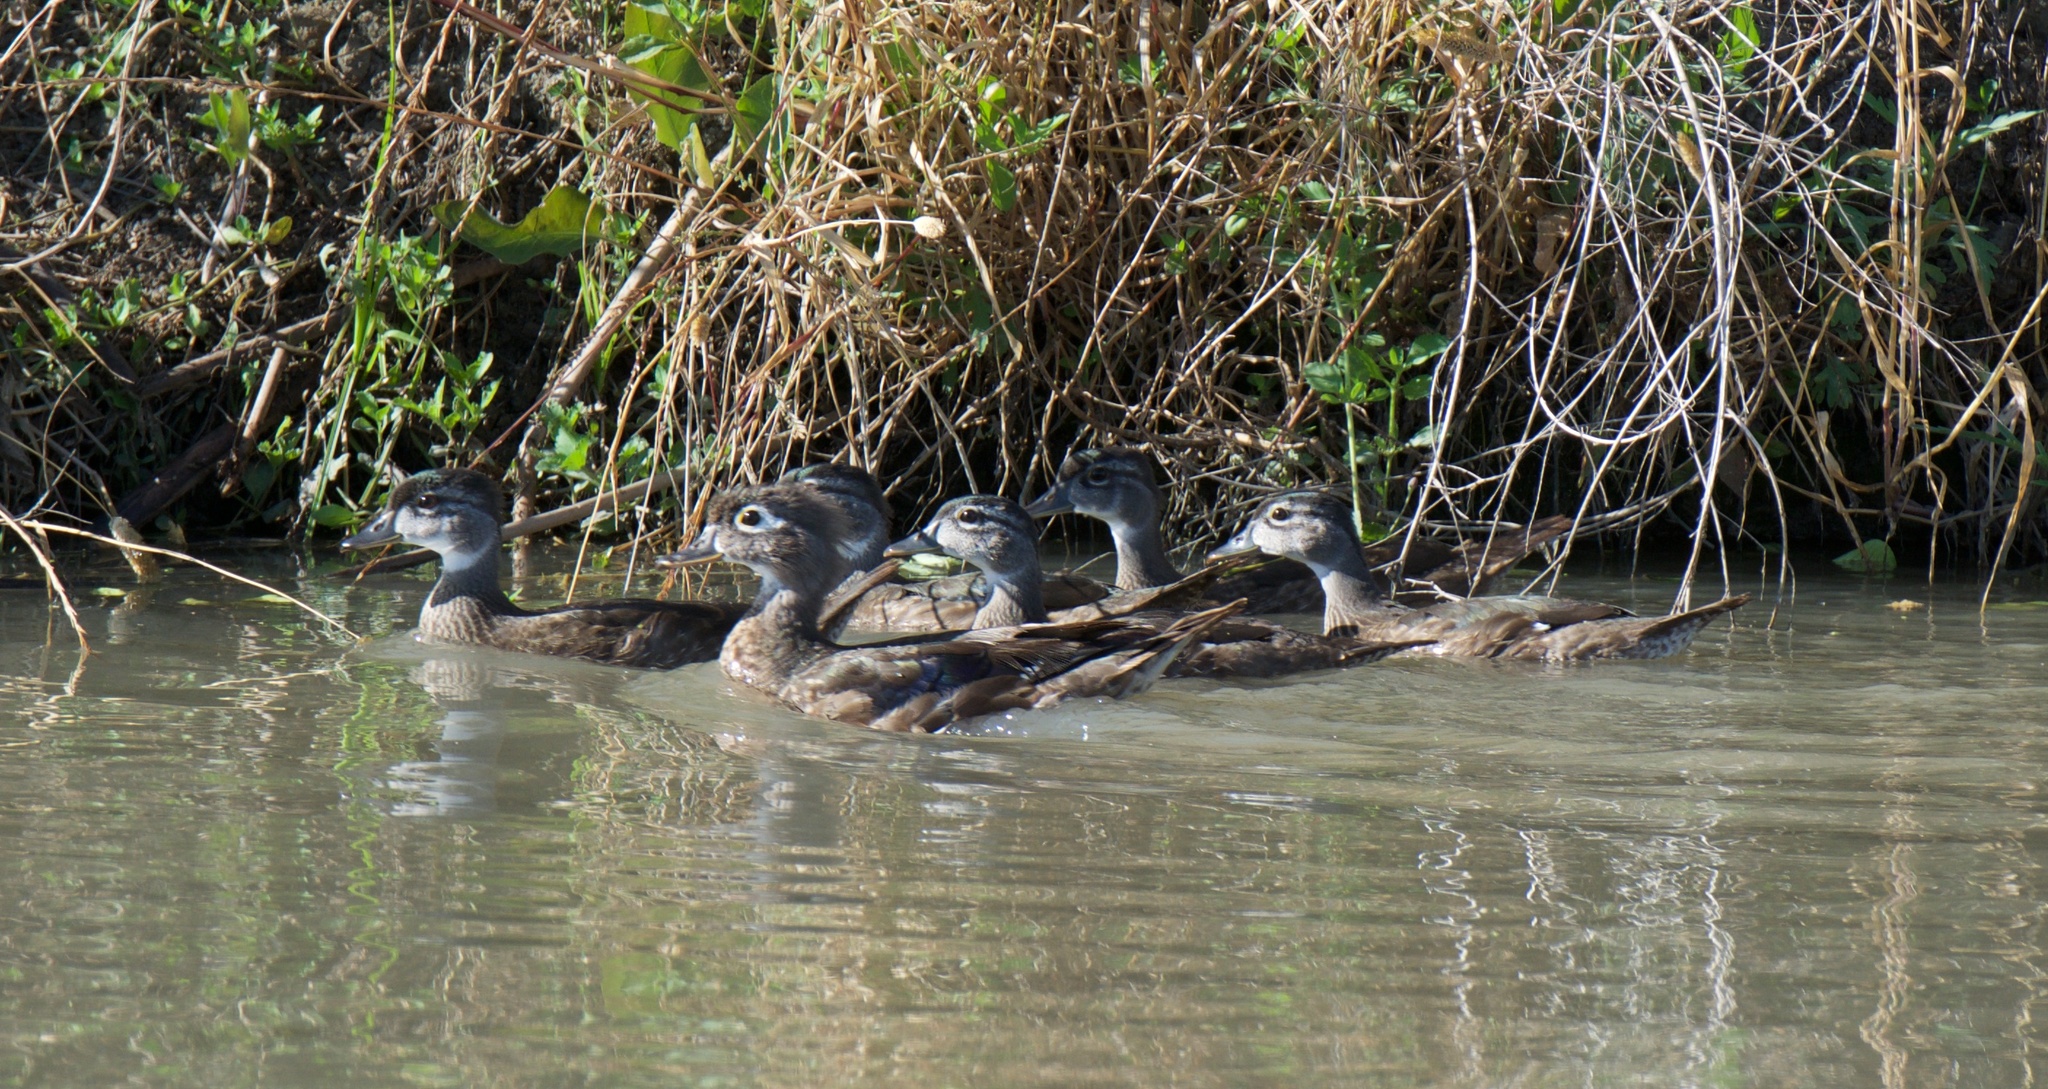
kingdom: Animalia
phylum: Chordata
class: Aves
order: Anseriformes
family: Anatidae
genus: Aix
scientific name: Aix sponsa
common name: Wood duck
